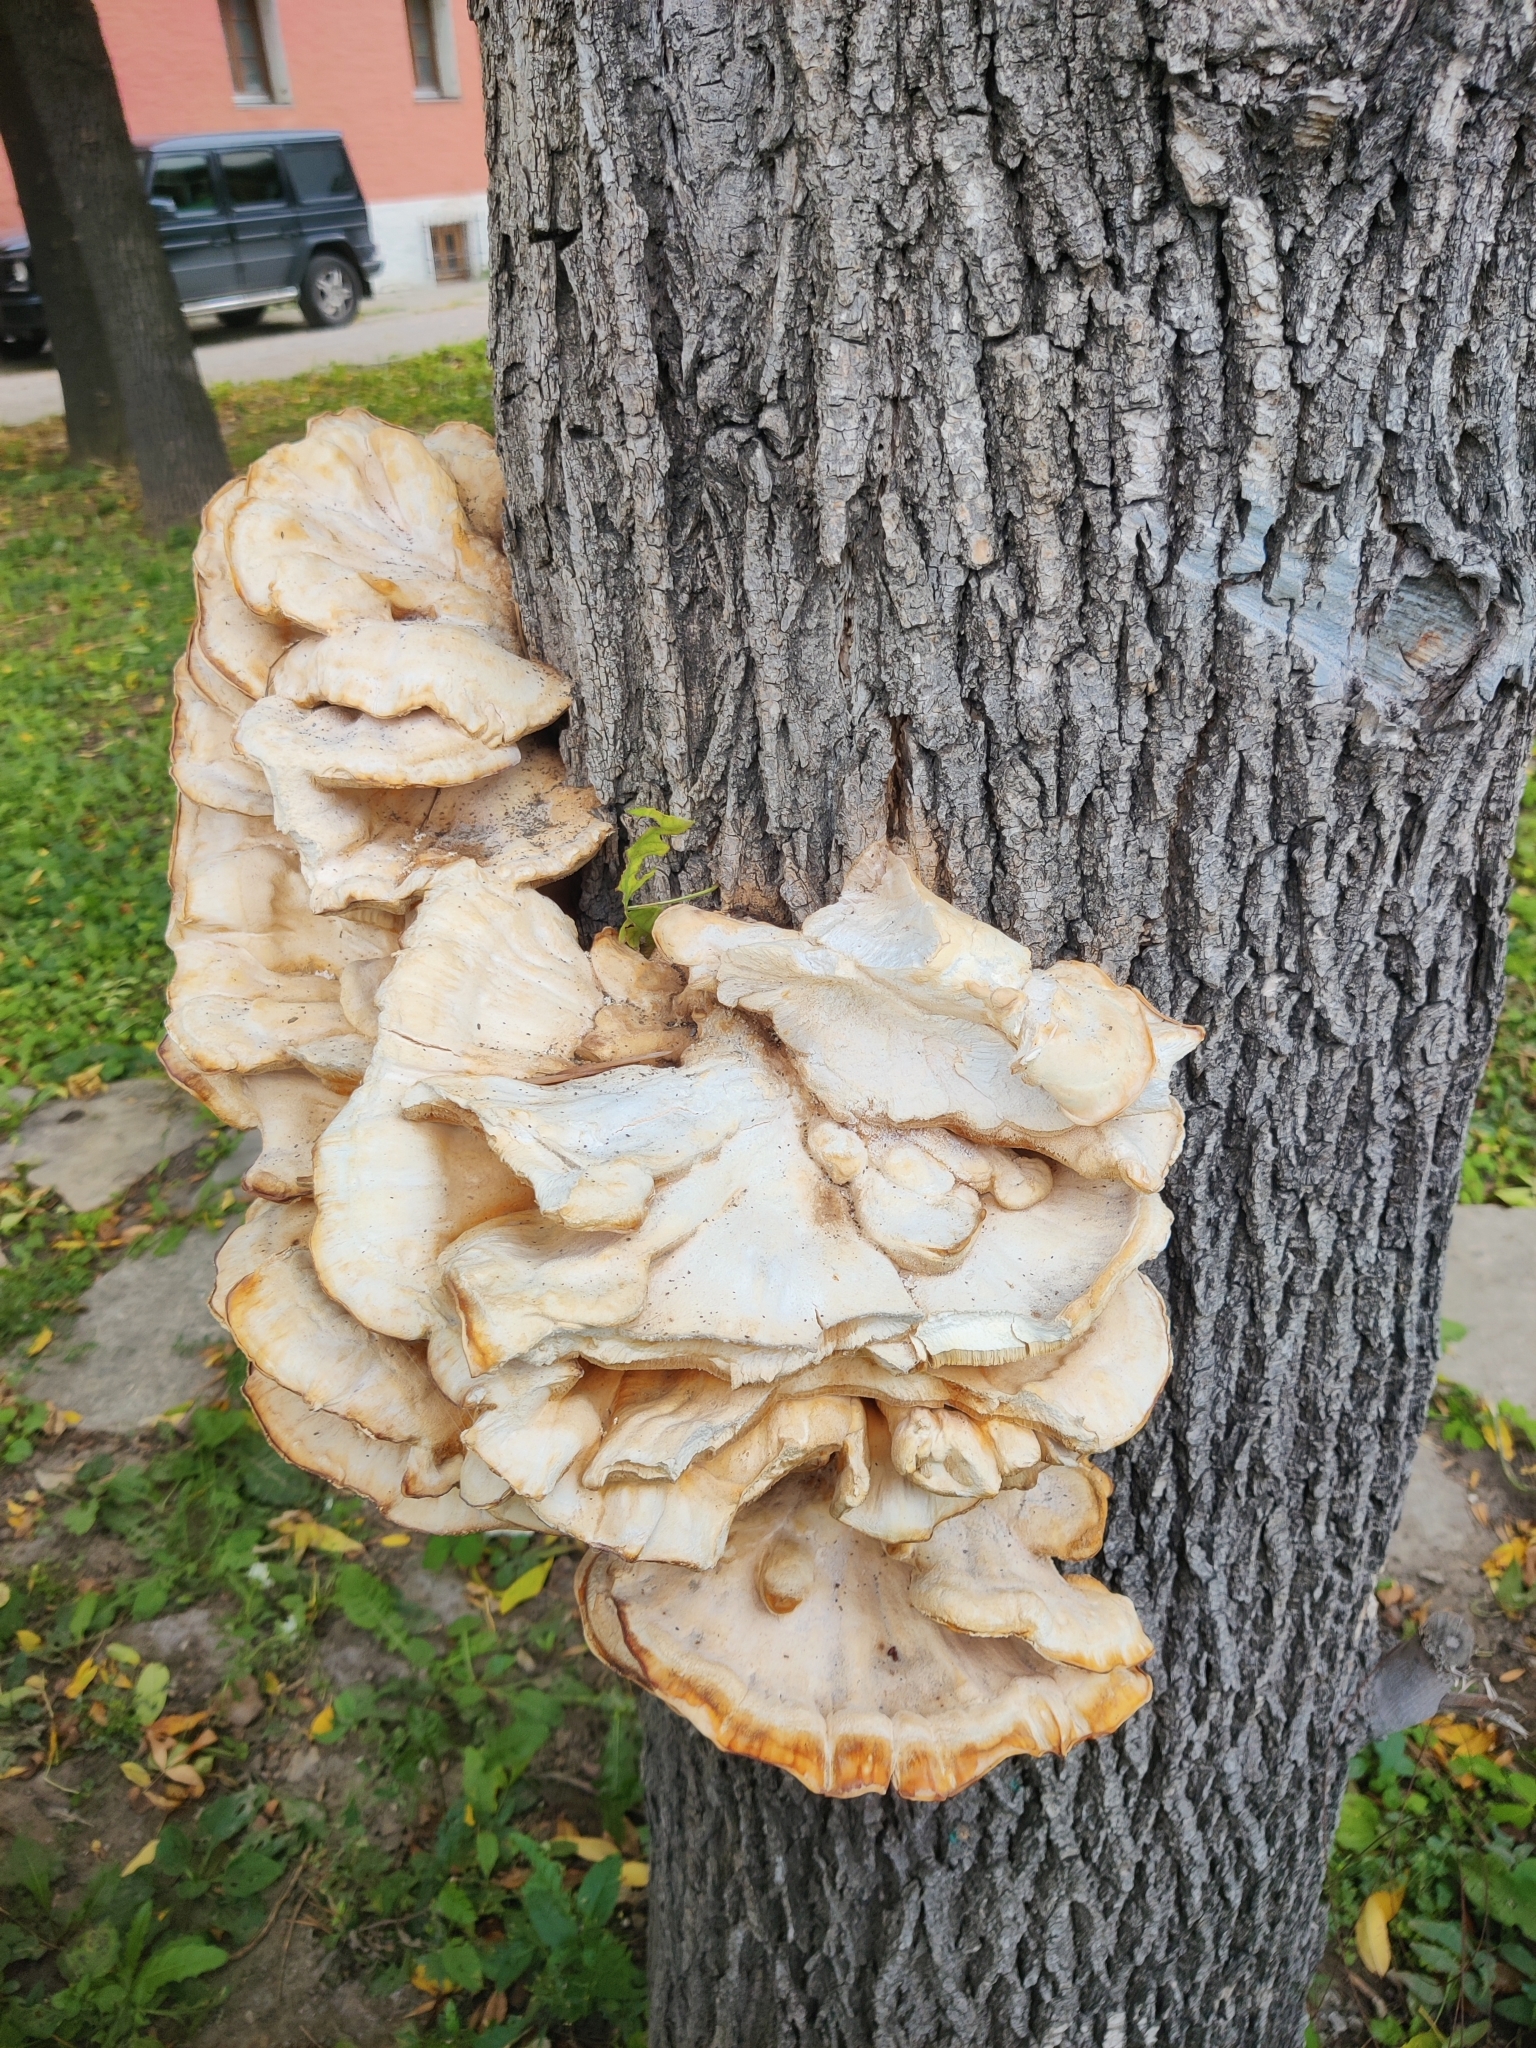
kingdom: Fungi
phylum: Basidiomycota
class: Agaricomycetes
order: Polyporales
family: Laetiporaceae
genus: Laetiporus
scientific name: Laetiporus sulphureus
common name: Chicken of the woods
